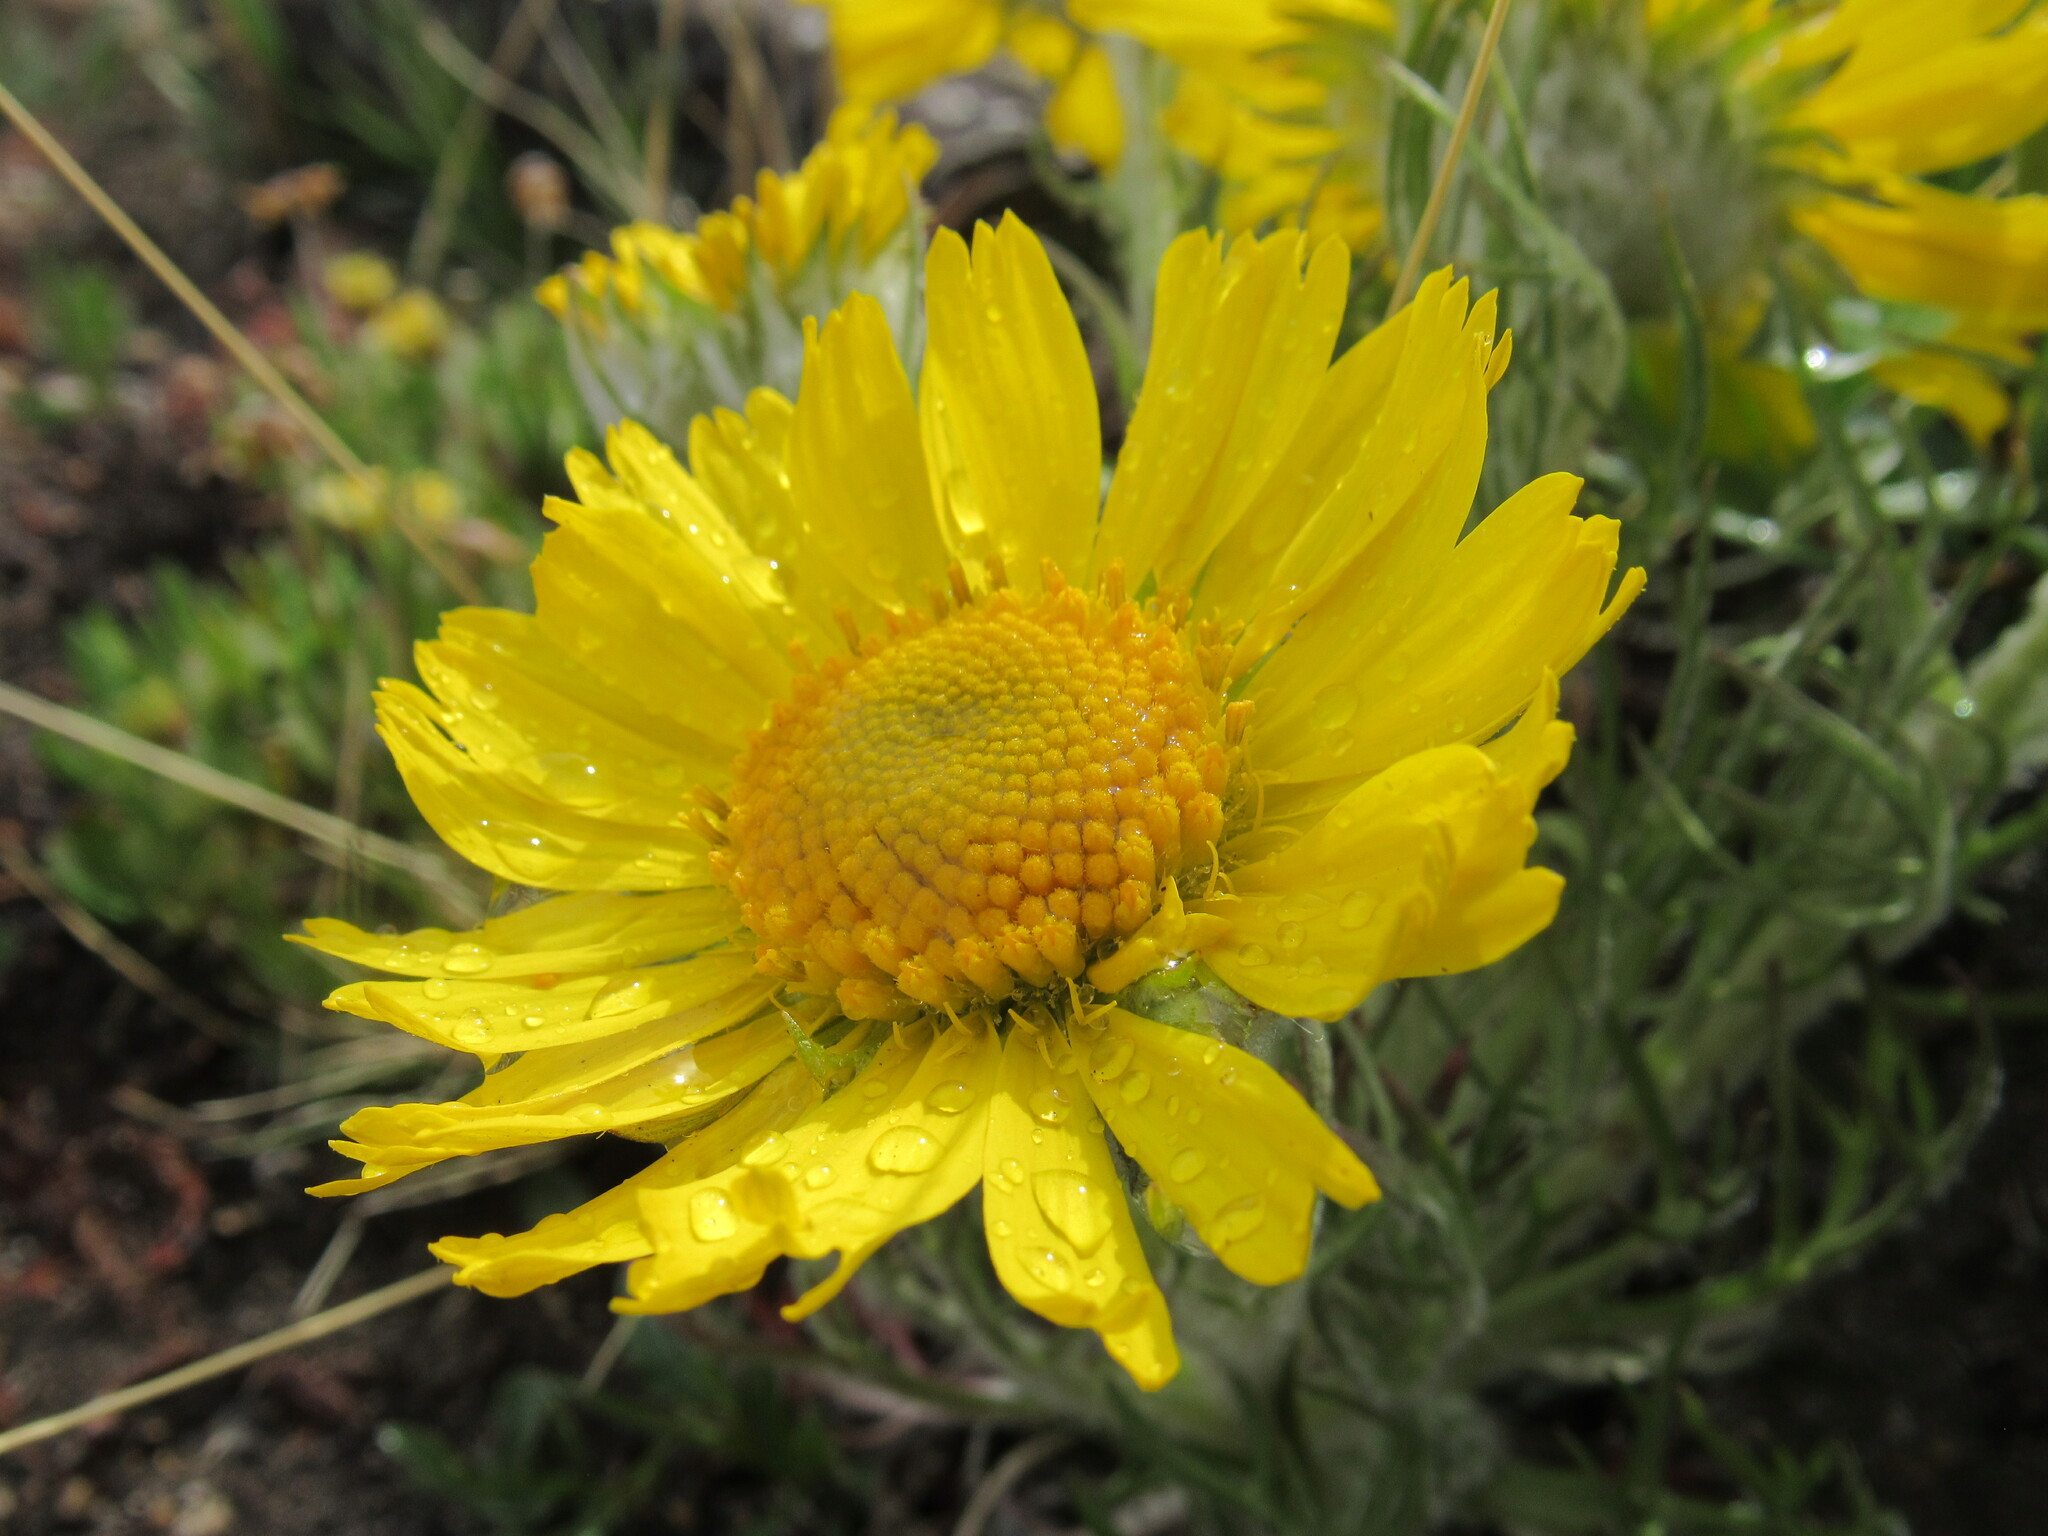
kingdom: Plantae
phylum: Tracheophyta
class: Magnoliopsida
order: Asterales
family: Asteraceae
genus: Hymenoxys
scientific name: Hymenoxys grandiflora
